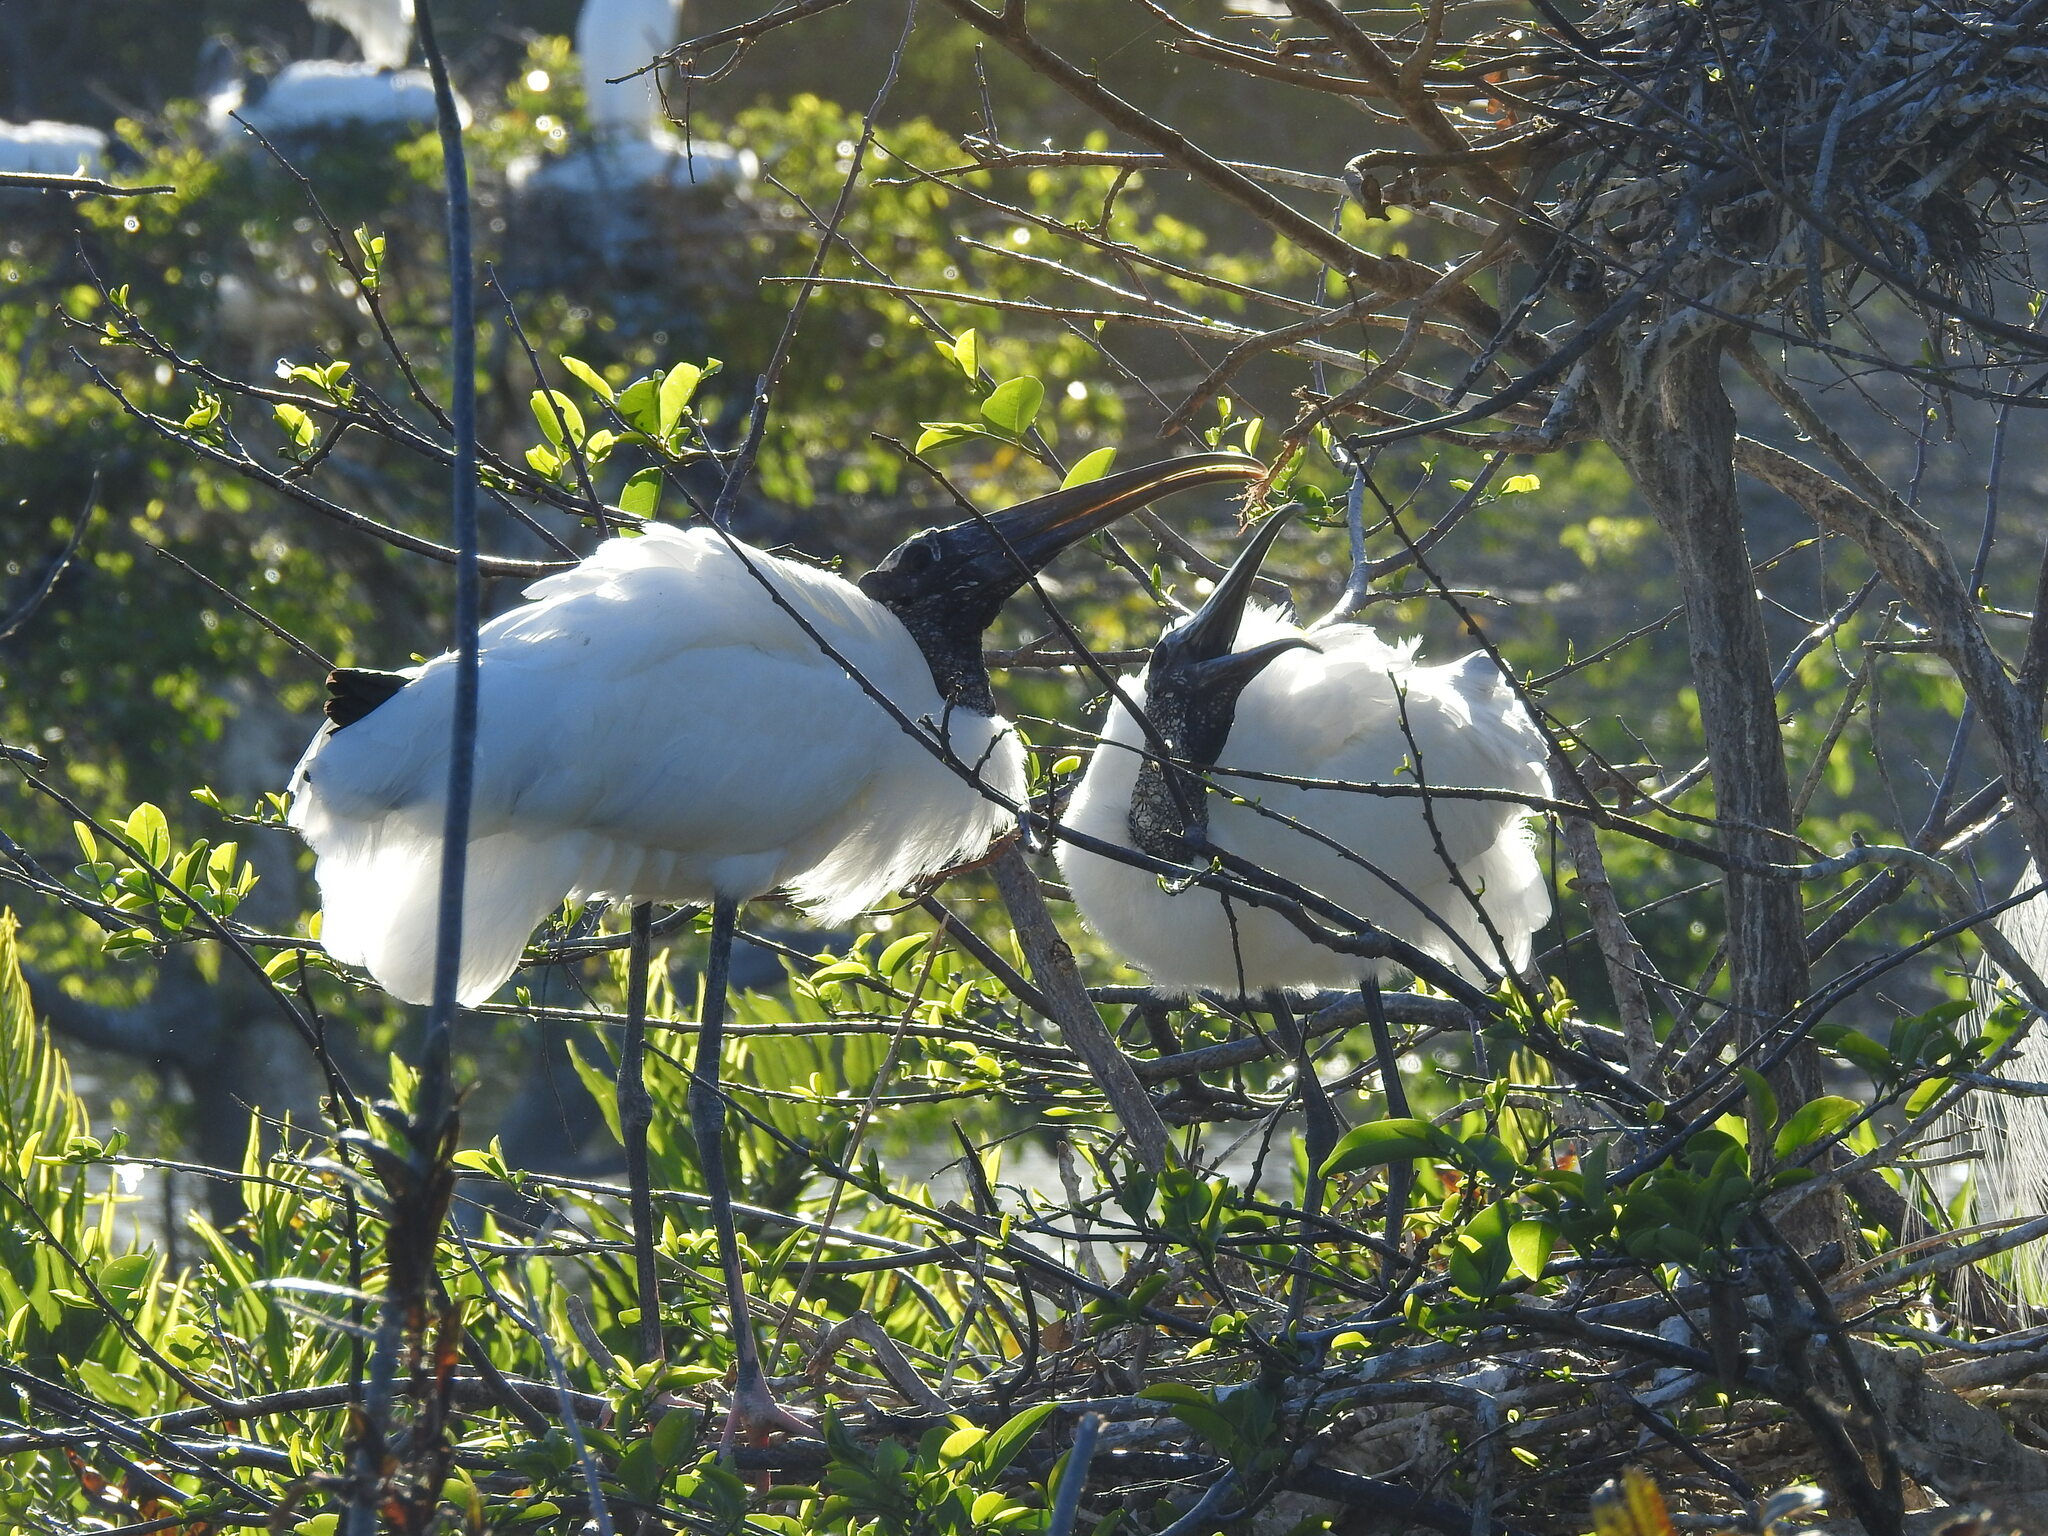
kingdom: Animalia
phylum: Chordata
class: Aves
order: Ciconiiformes
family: Ciconiidae
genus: Mycteria
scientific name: Mycteria americana
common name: Wood stork
